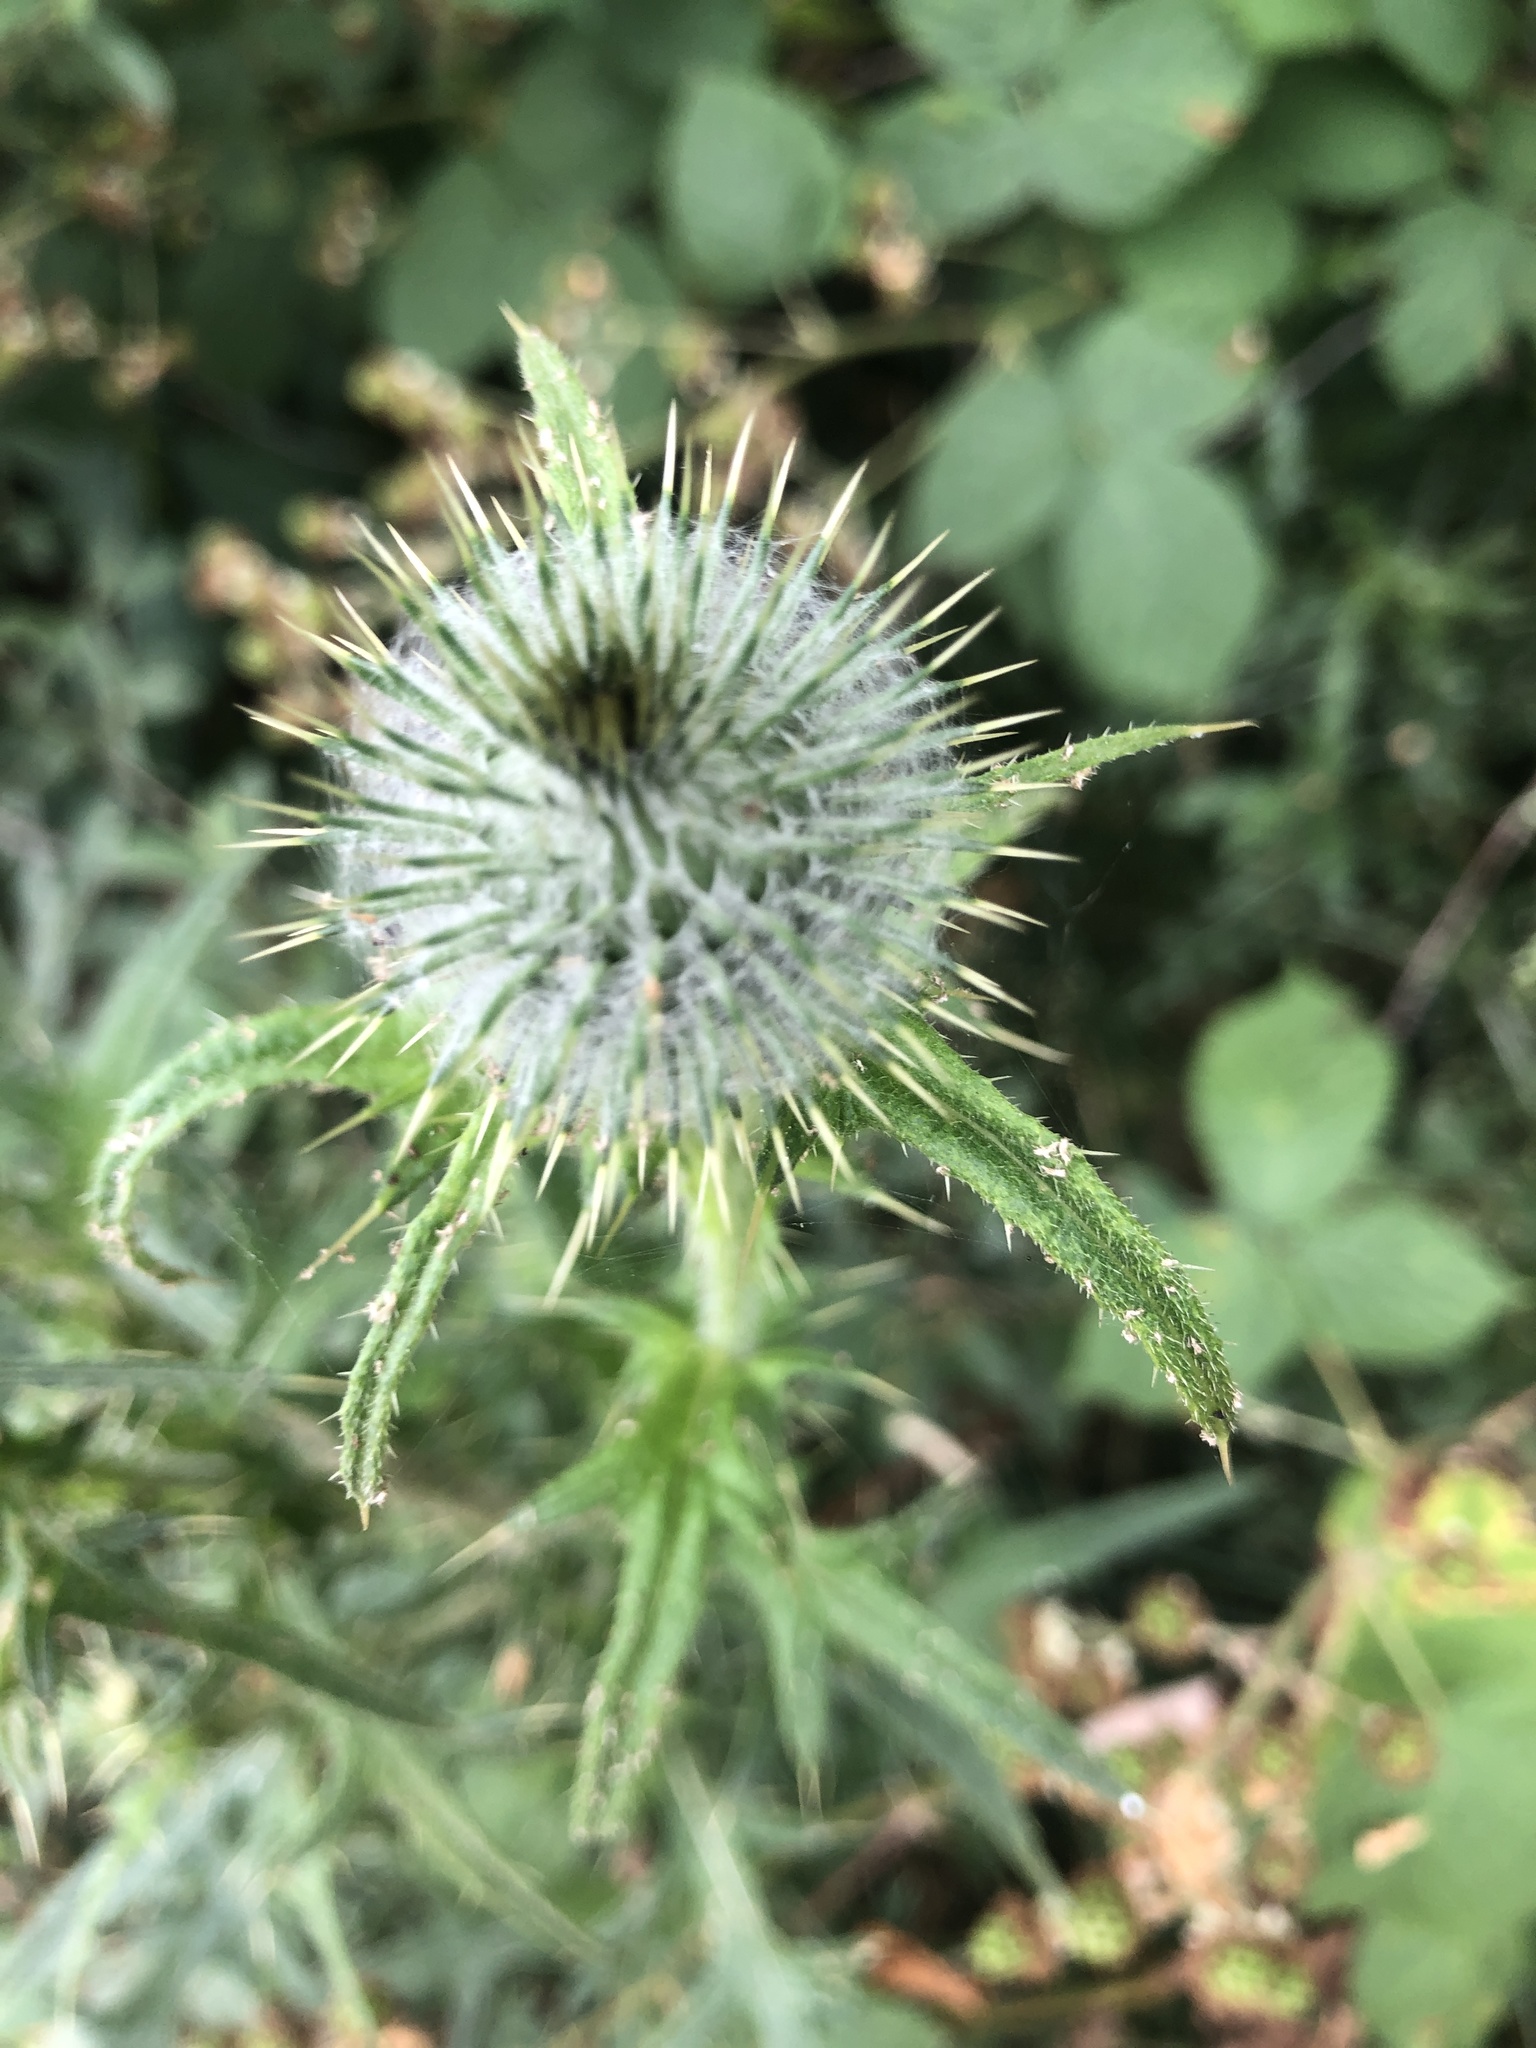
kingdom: Plantae
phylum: Tracheophyta
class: Magnoliopsida
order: Asterales
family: Asteraceae
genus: Cirsium
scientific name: Cirsium vulgare
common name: Bull thistle
